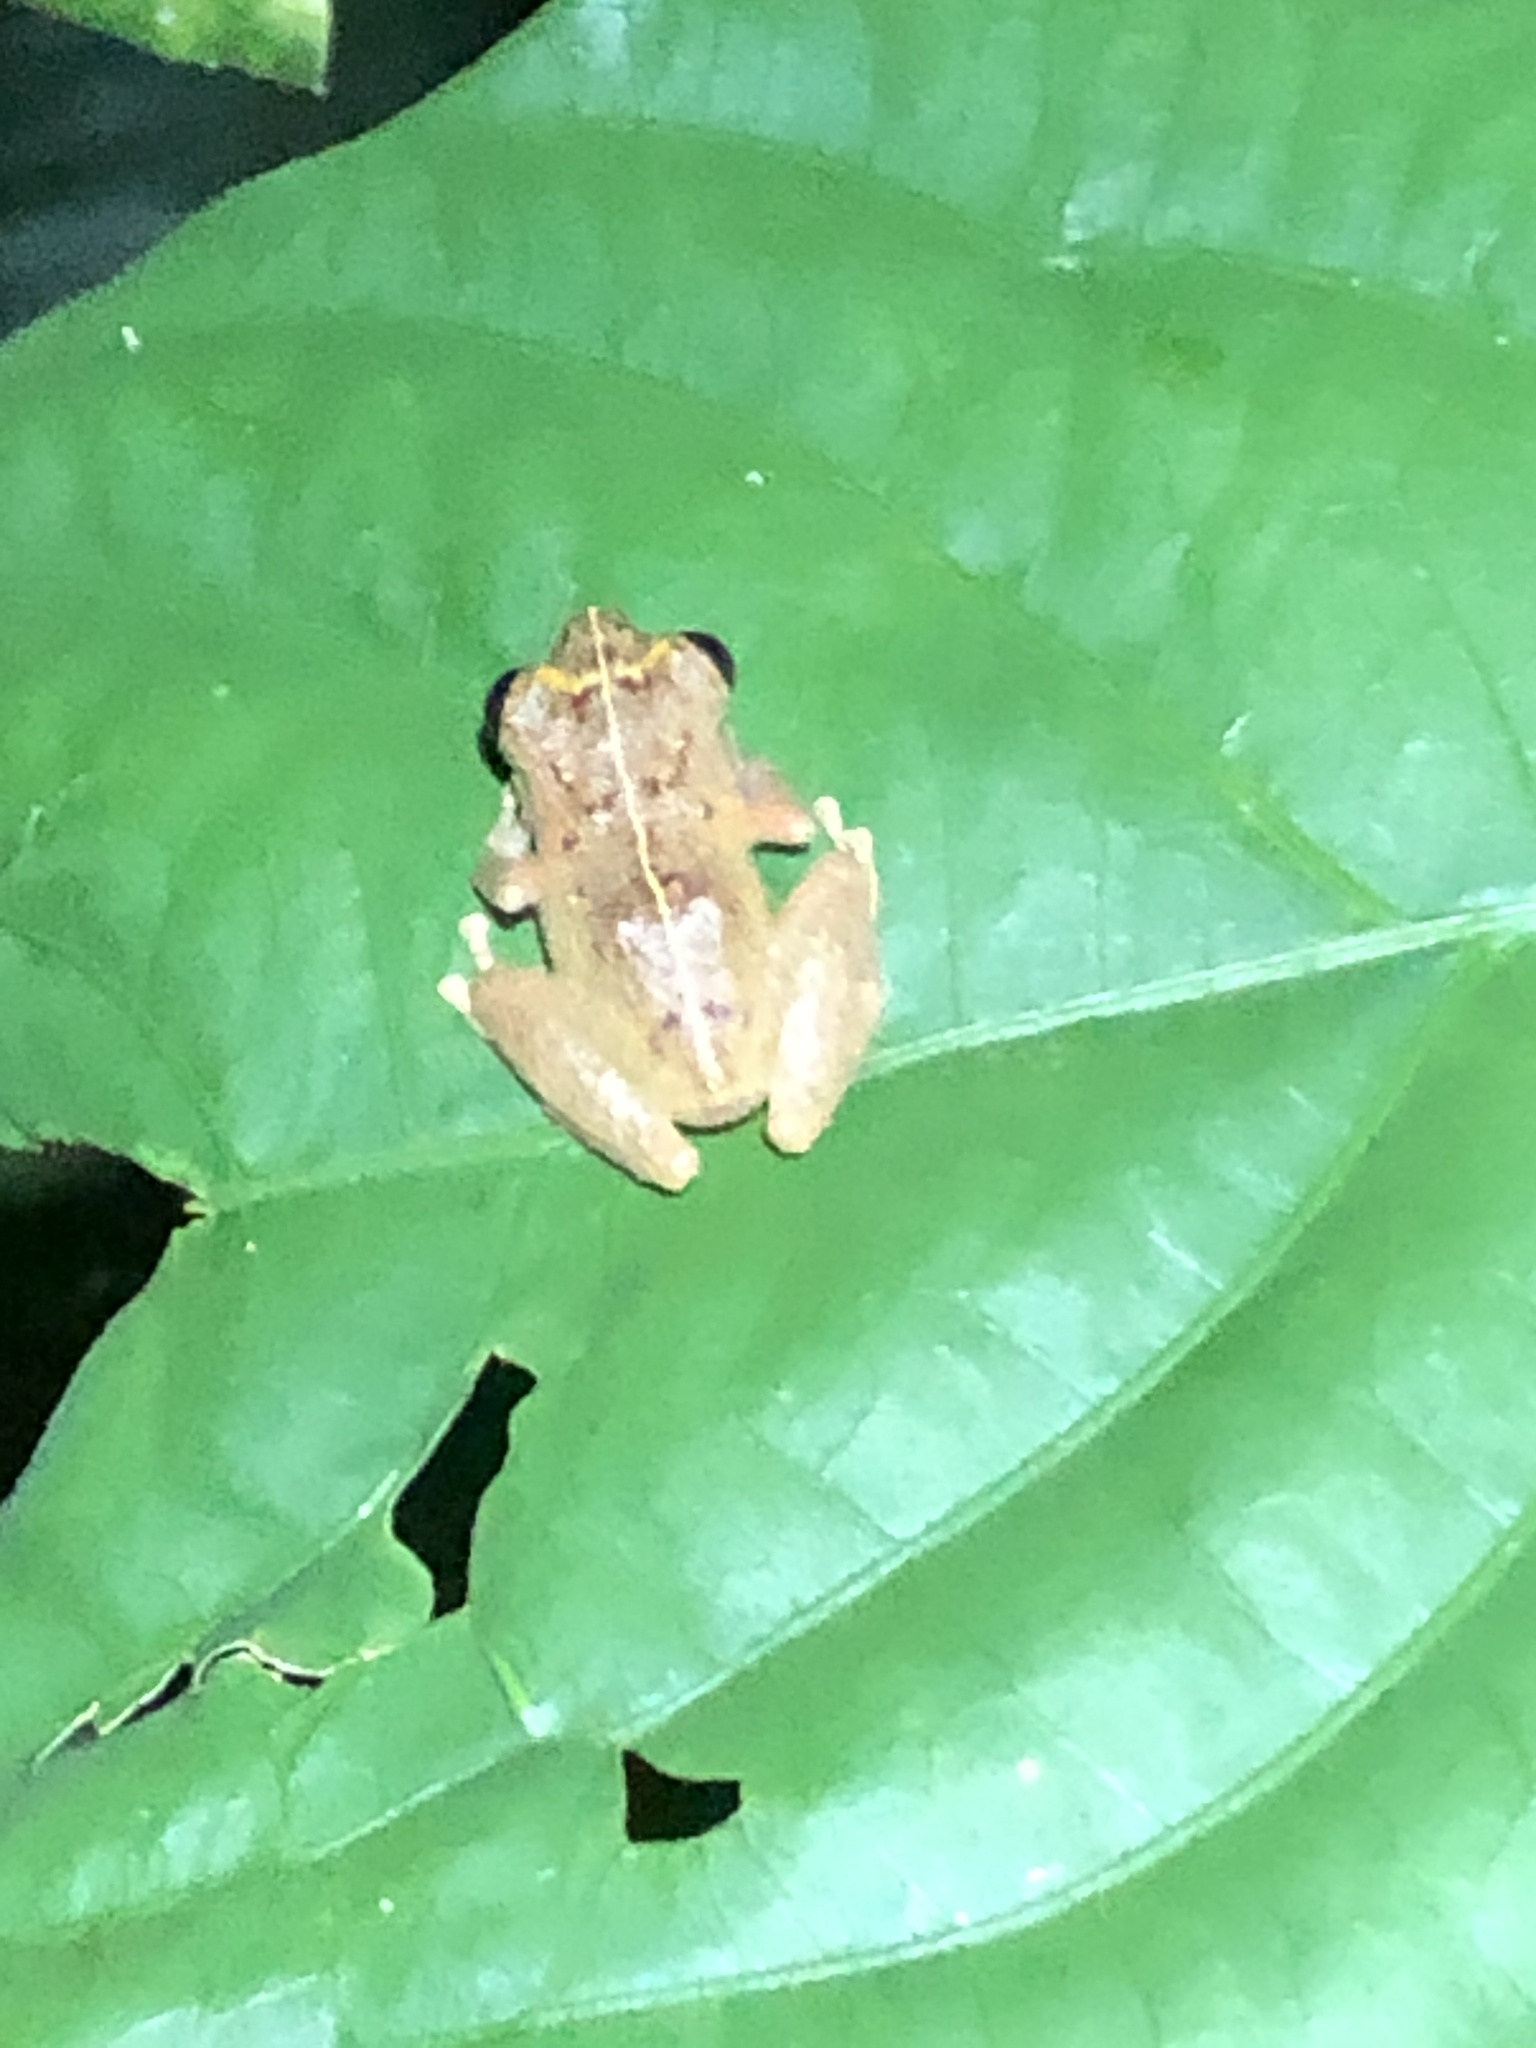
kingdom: Animalia
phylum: Chordata
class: Amphibia
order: Anura
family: Craugastoridae
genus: Pristimantis
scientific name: Pristimantis ockendeni
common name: Carabaya robber frog
